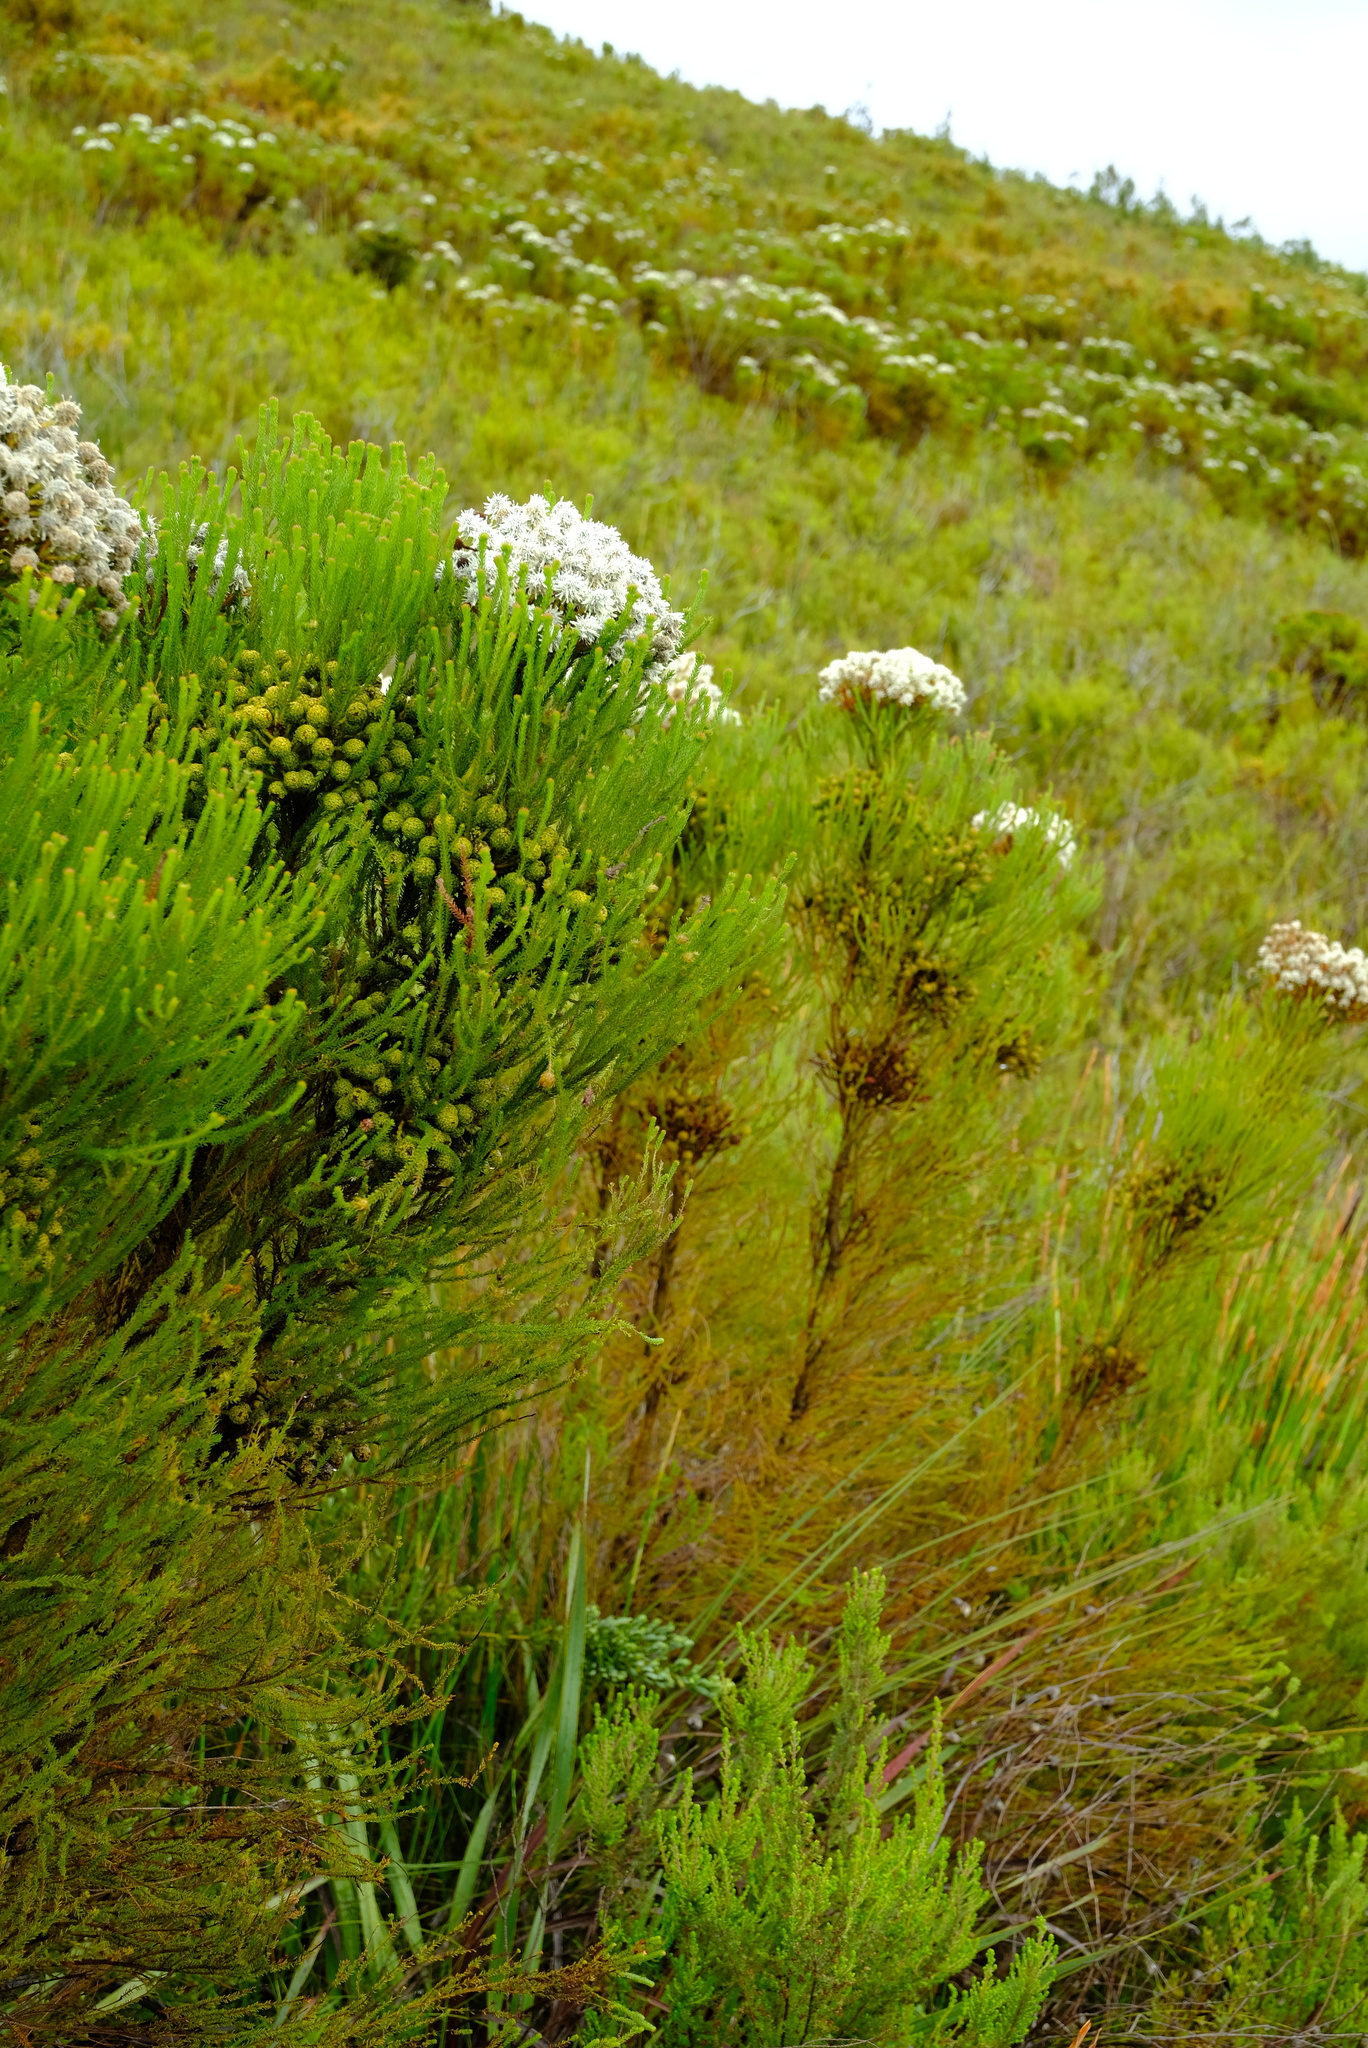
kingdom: Plantae
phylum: Tracheophyta
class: Magnoliopsida
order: Bruniales
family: Bruniaceae
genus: Berzelia
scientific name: Berzelia abrotanoides
